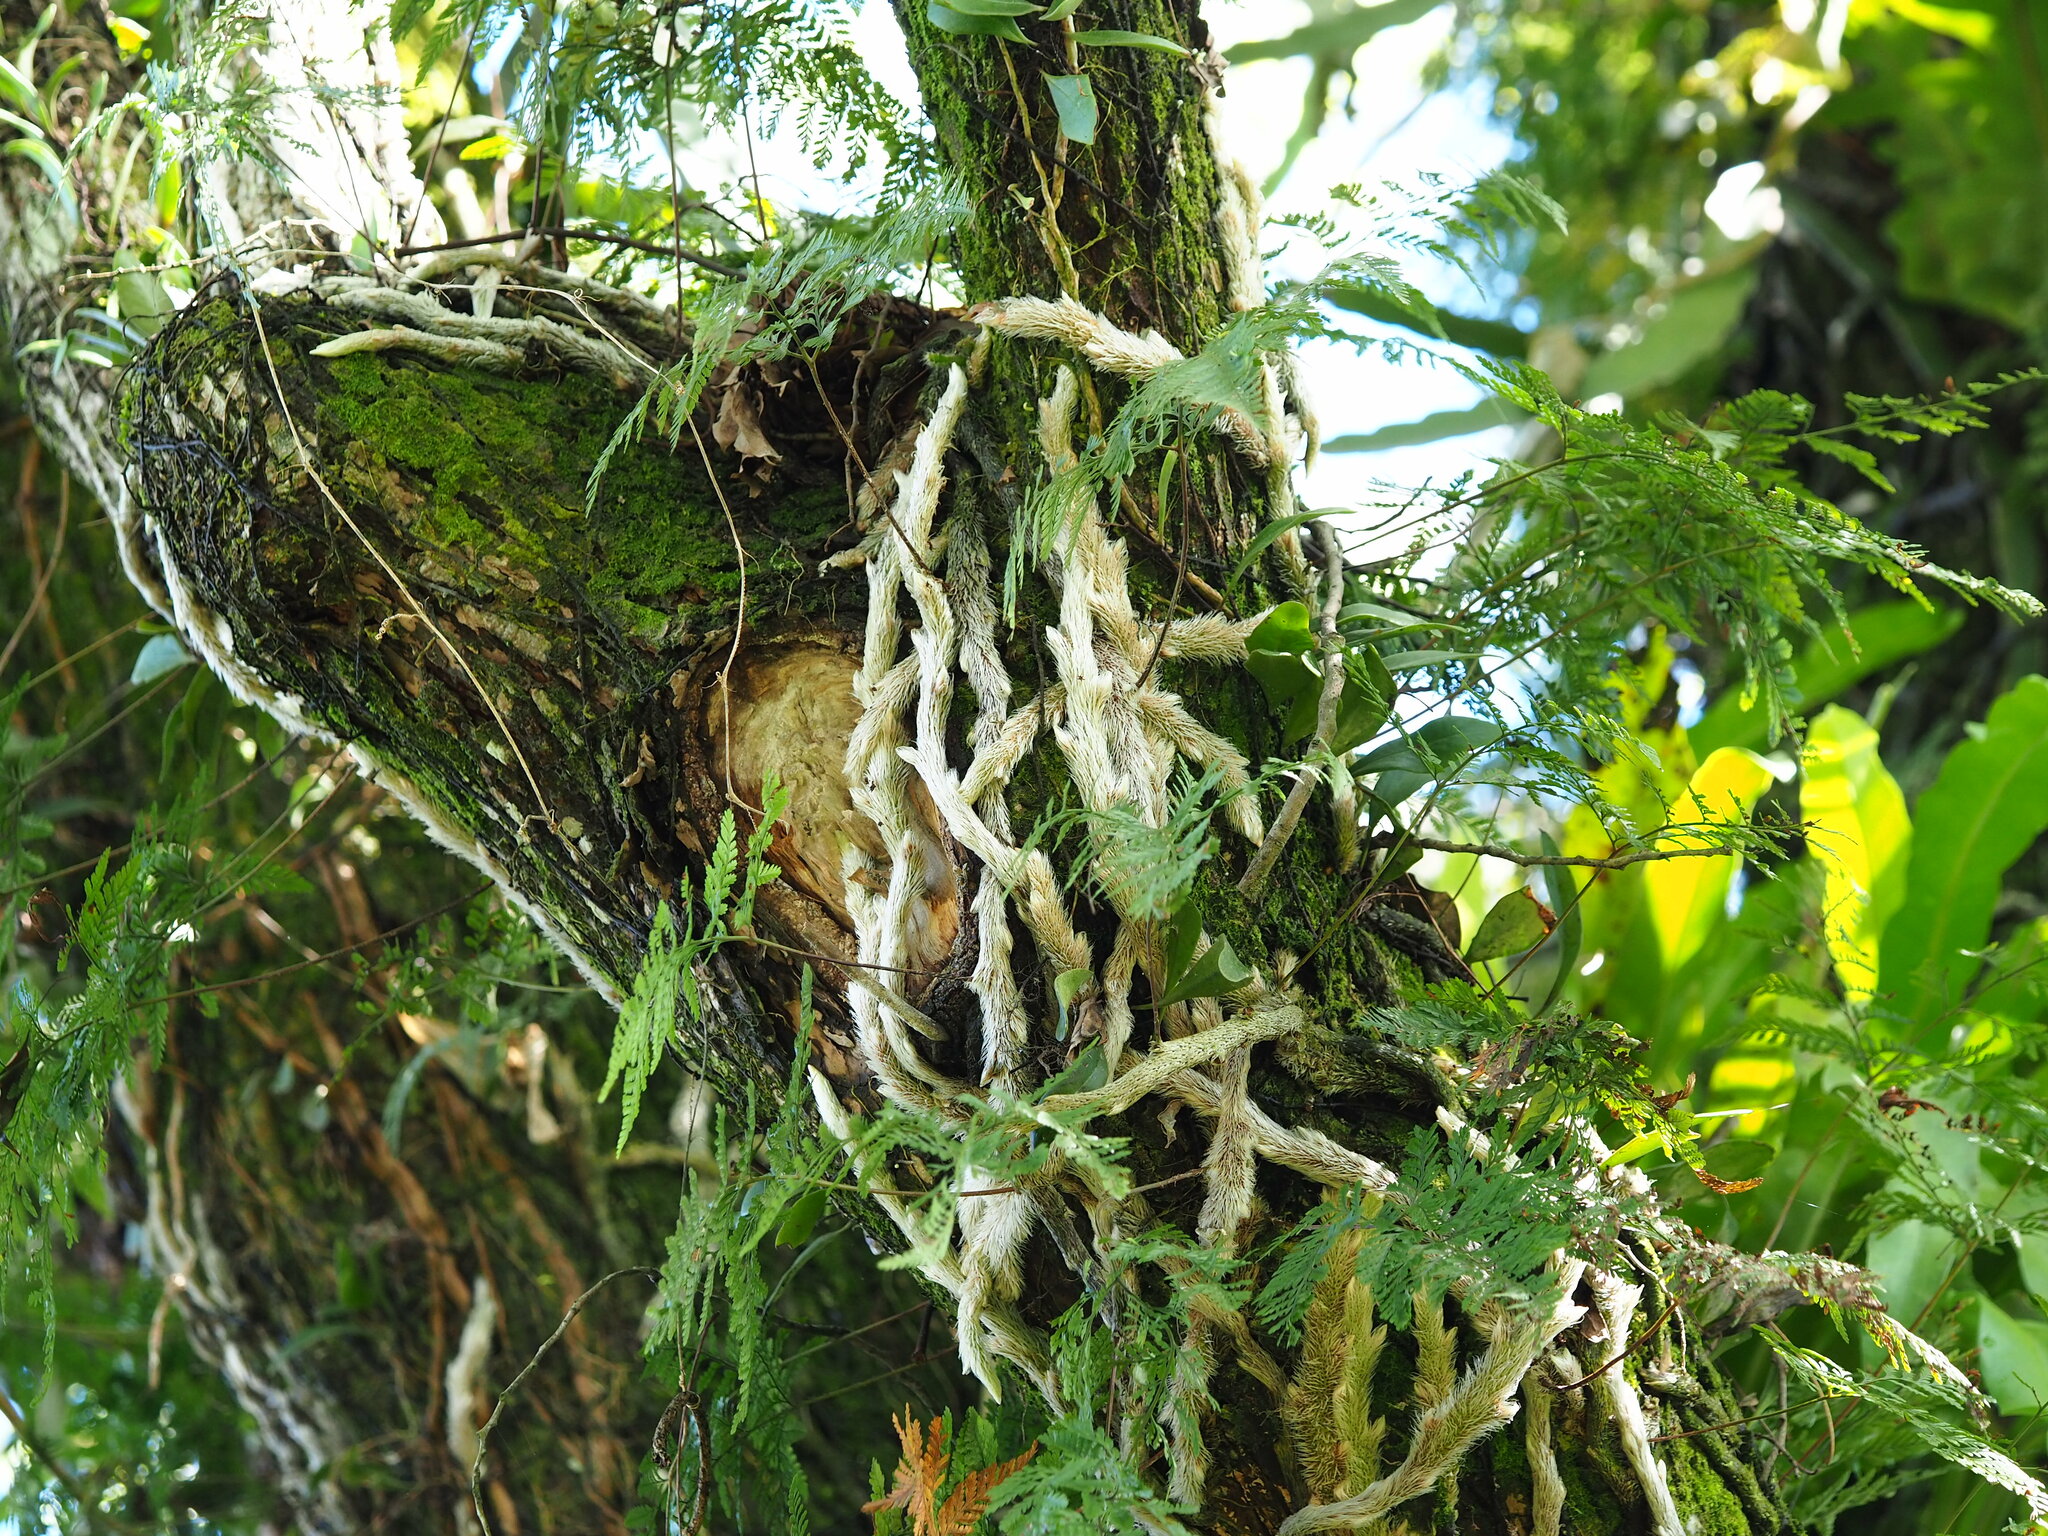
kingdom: Plantae
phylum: Tracheophyta
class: Polypodiopsida
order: Polypodiales
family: Davalliaceae
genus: Davallia
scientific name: Davallia griffithiana
